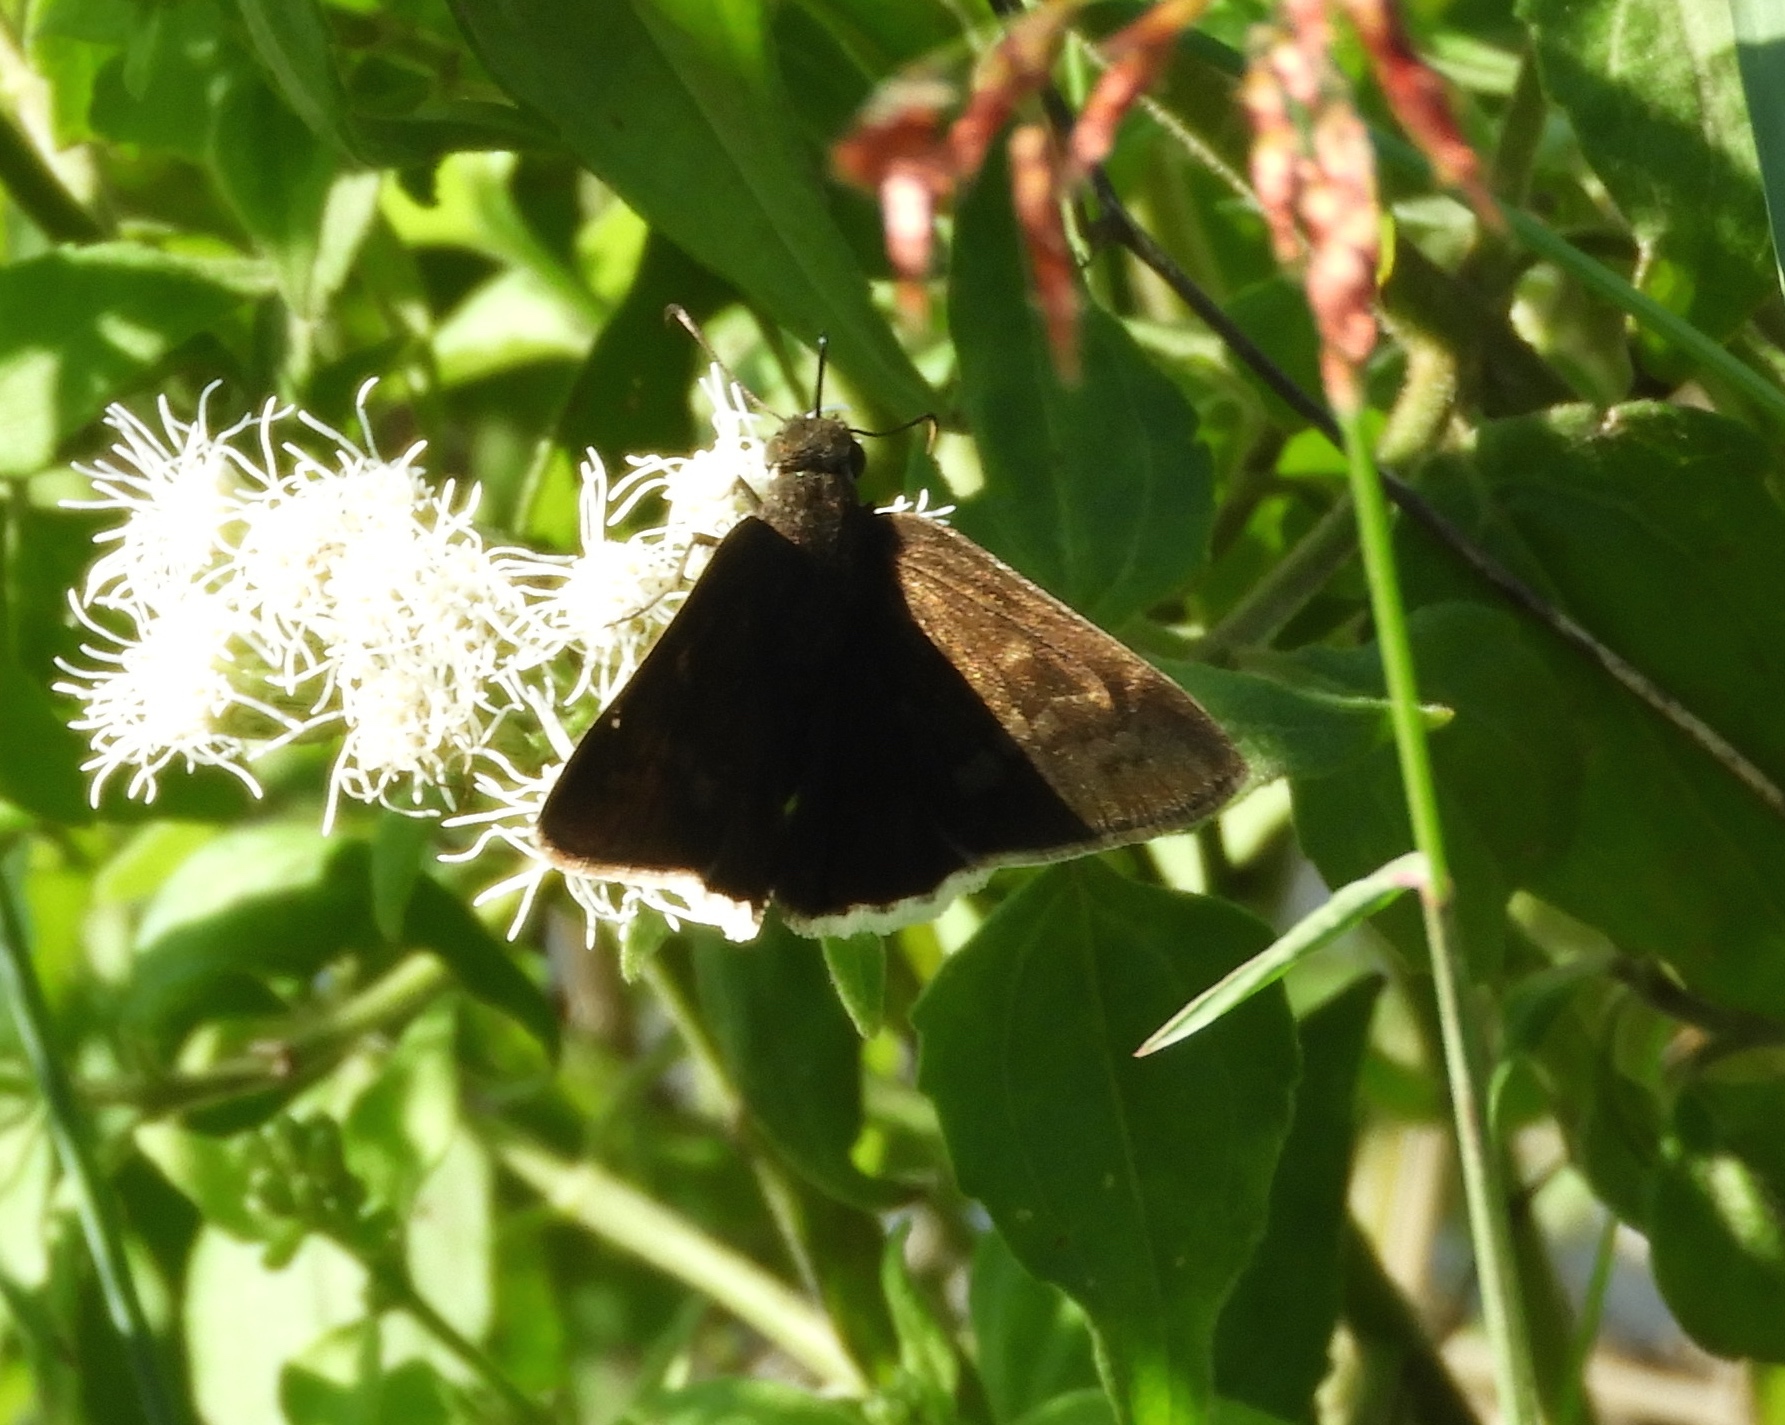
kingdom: Animalia
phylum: Arthropoda
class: Insecta
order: Lepidoptera
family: Hesperiidae
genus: Achalarus
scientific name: Achalarus Murgaria albociliatus
